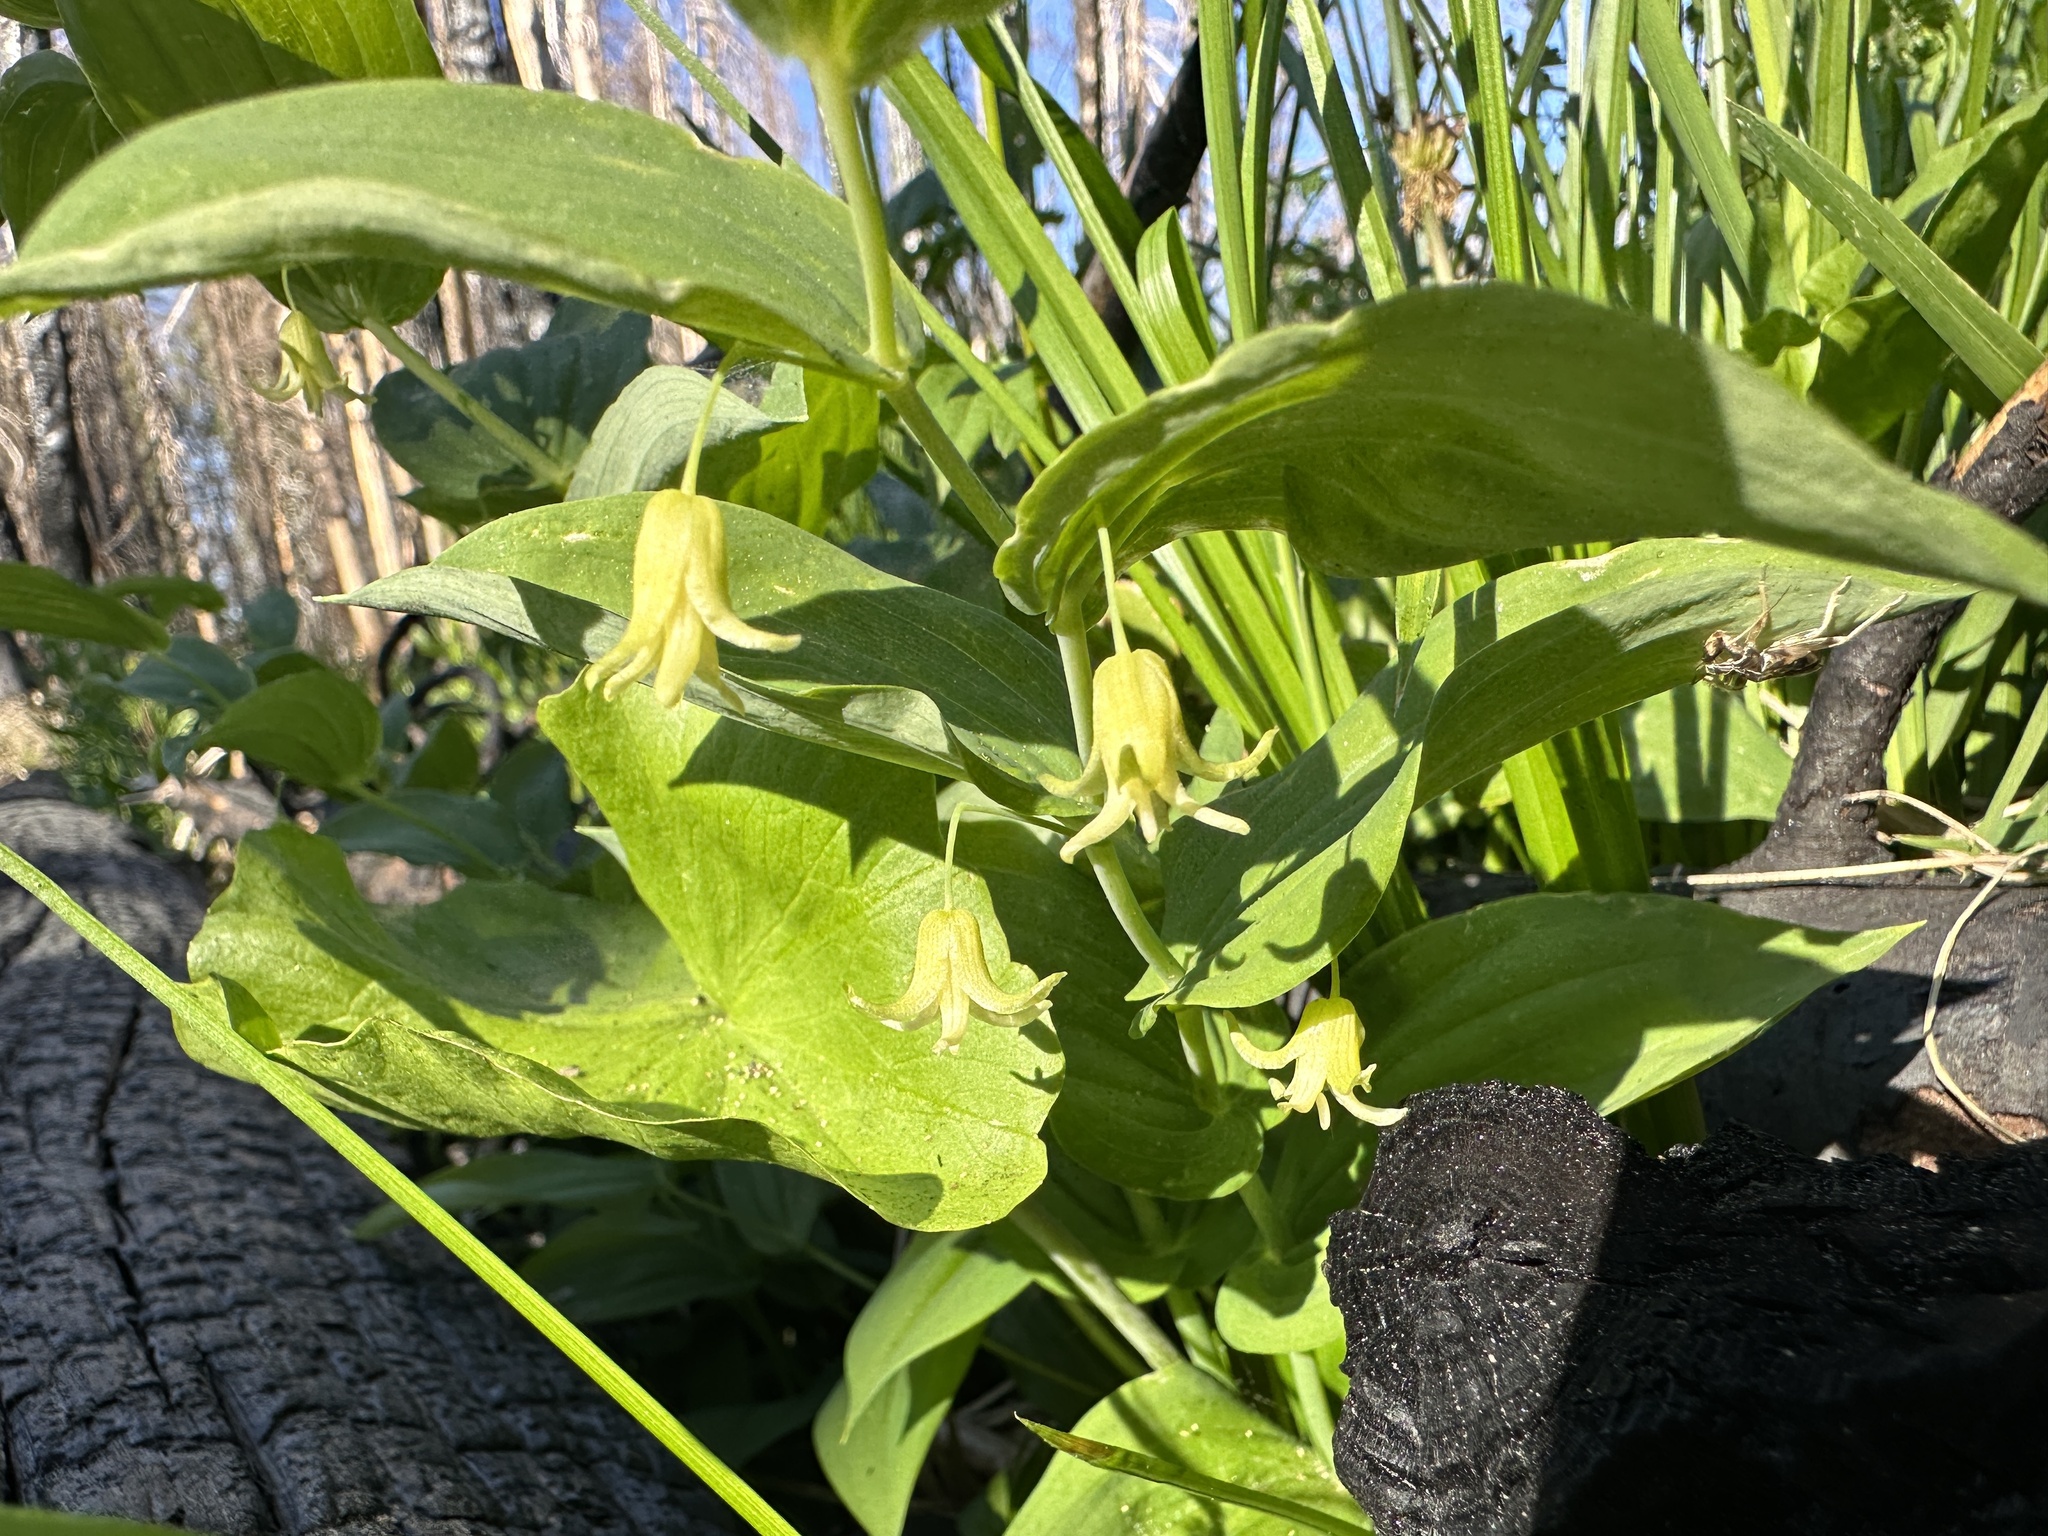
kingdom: Plantae
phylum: Tracheophyta
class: Liliopsida
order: Liliales
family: Liliaceae
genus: Streptopus
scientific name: Streptopus amplexifolius
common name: Clasp twisted stalk
